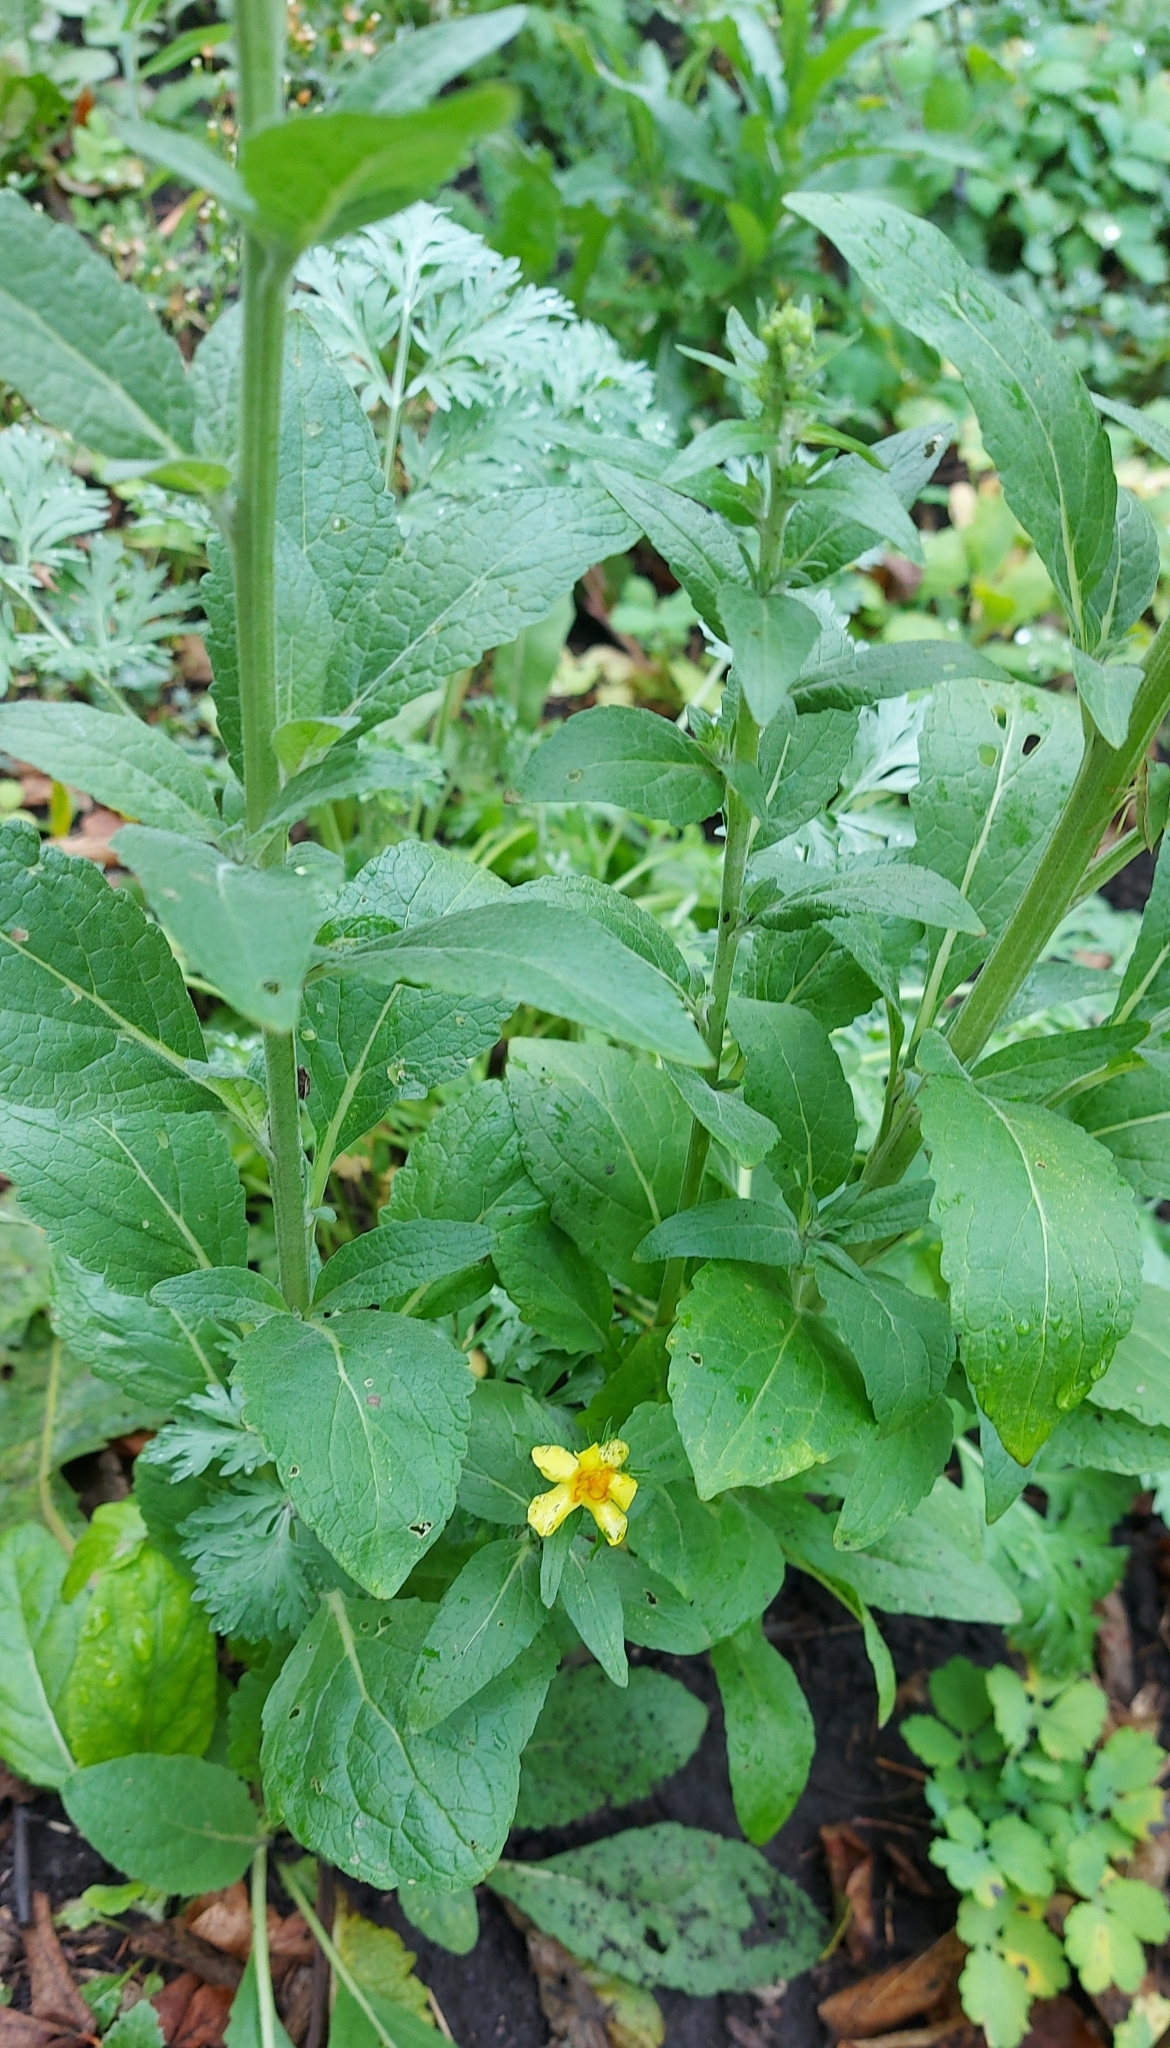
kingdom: Plantae
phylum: Tracheophyta
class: Magnoliopsida
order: Lamiales
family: Scrophulariaceae
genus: Verbascum
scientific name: Verbascum lychnitis
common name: White mullein
